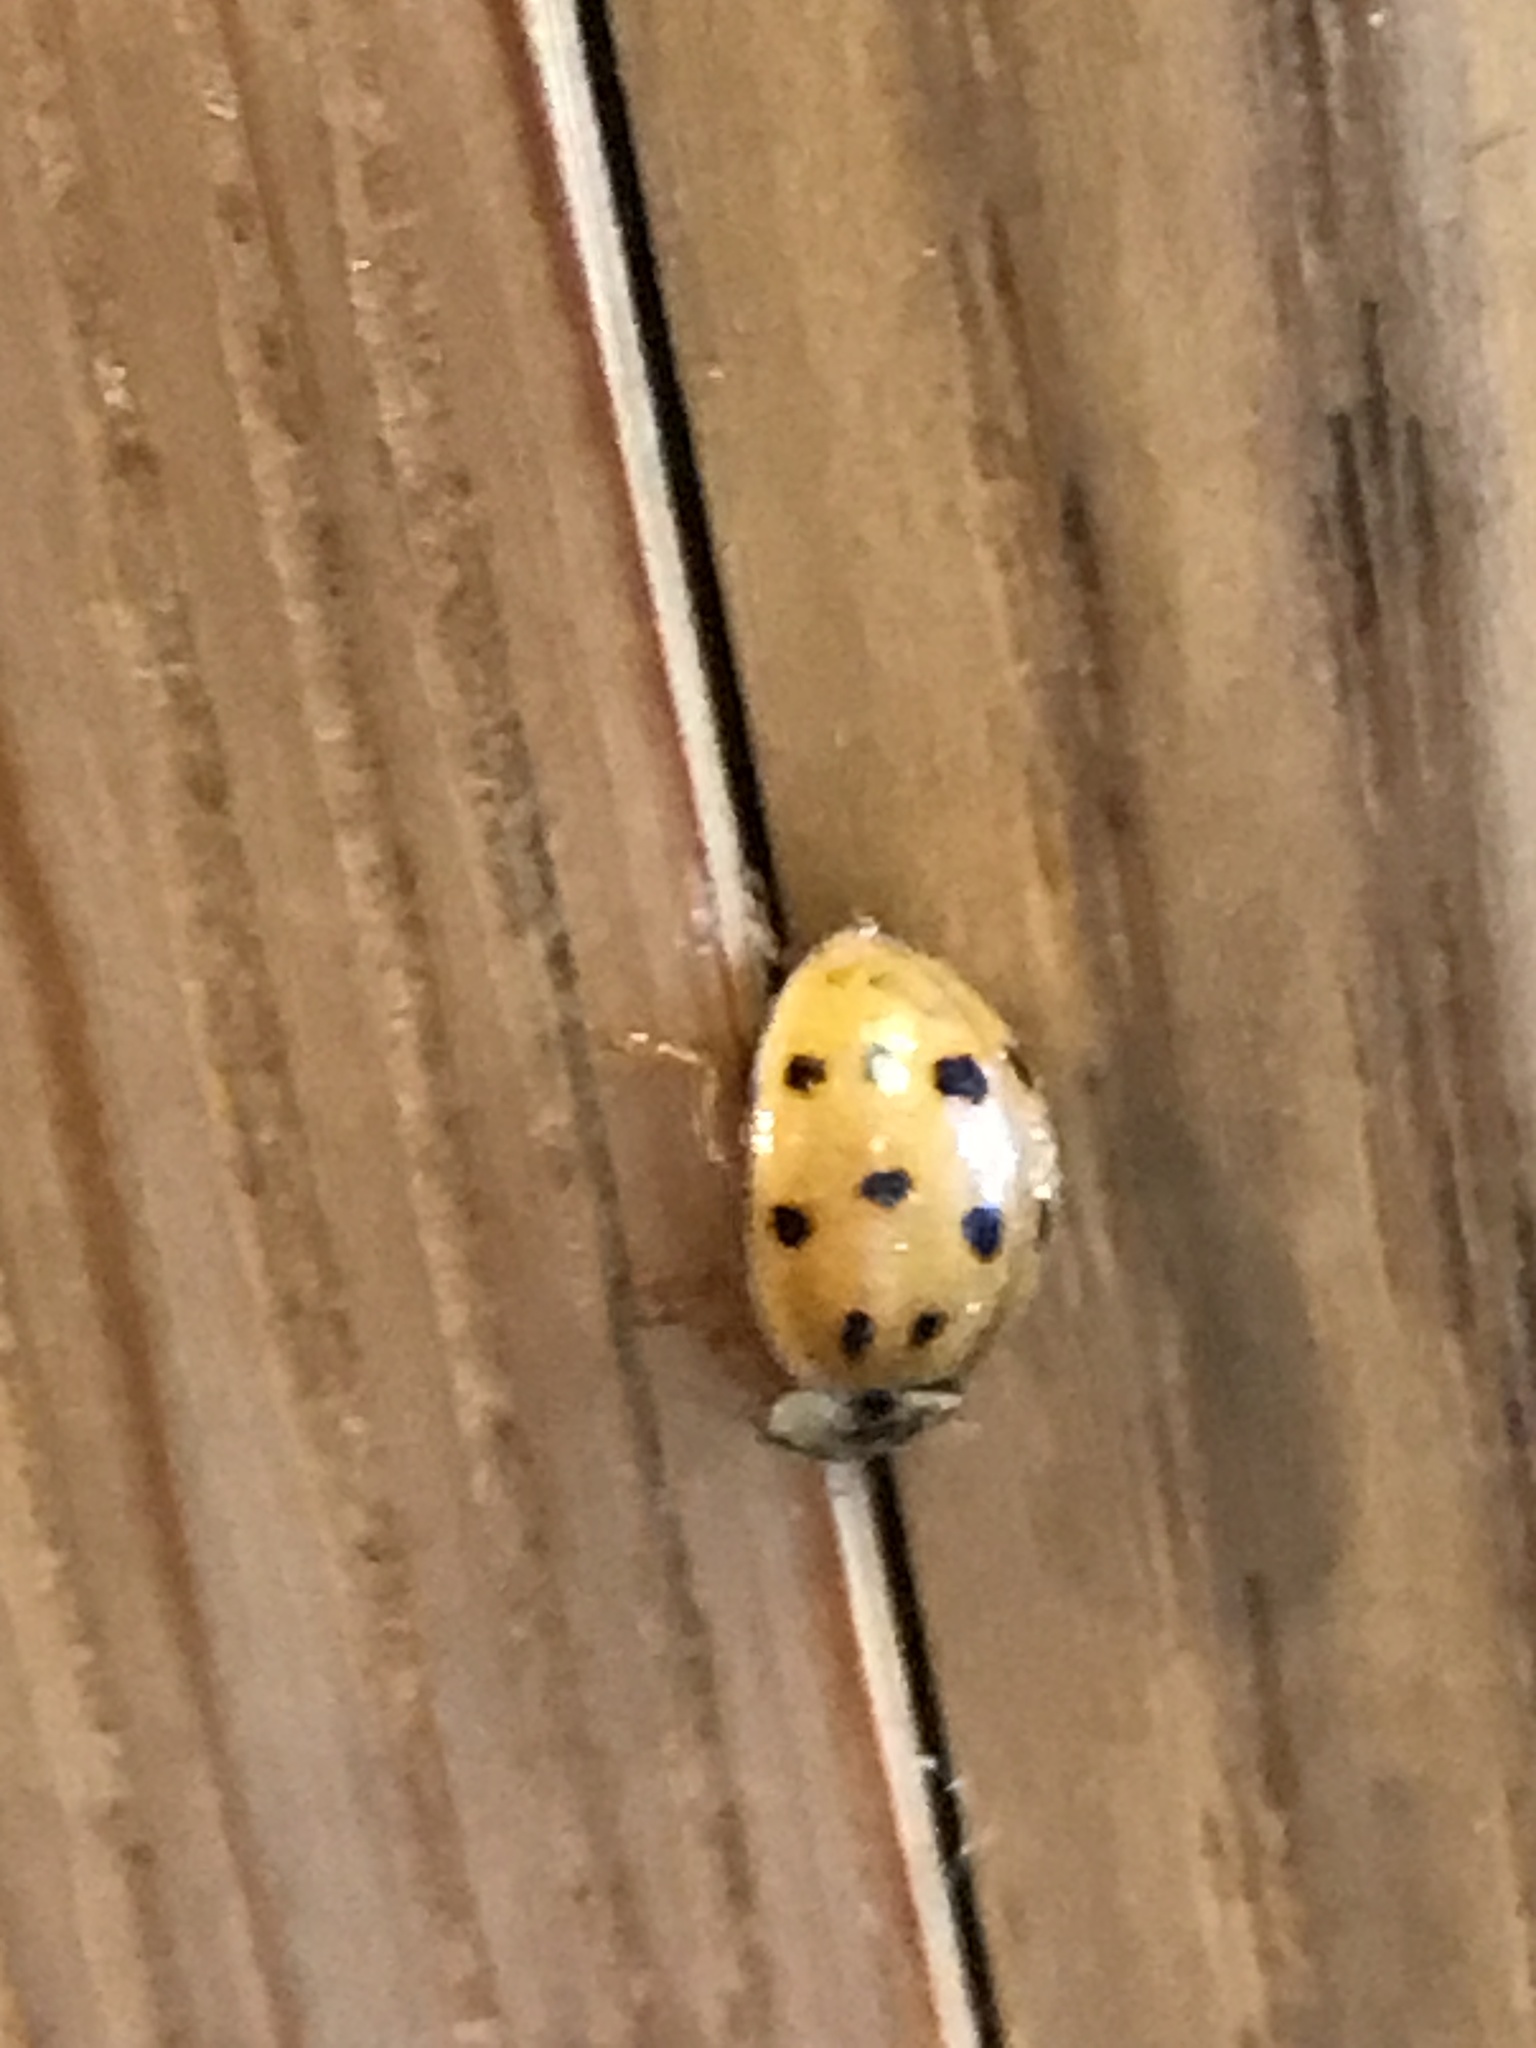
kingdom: Animalia
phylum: Arthropoda
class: Insecta
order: Coleoptera
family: Coccinellidae
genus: Harmonia
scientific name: Harmonia axyridis
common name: Harlequin ladybird
